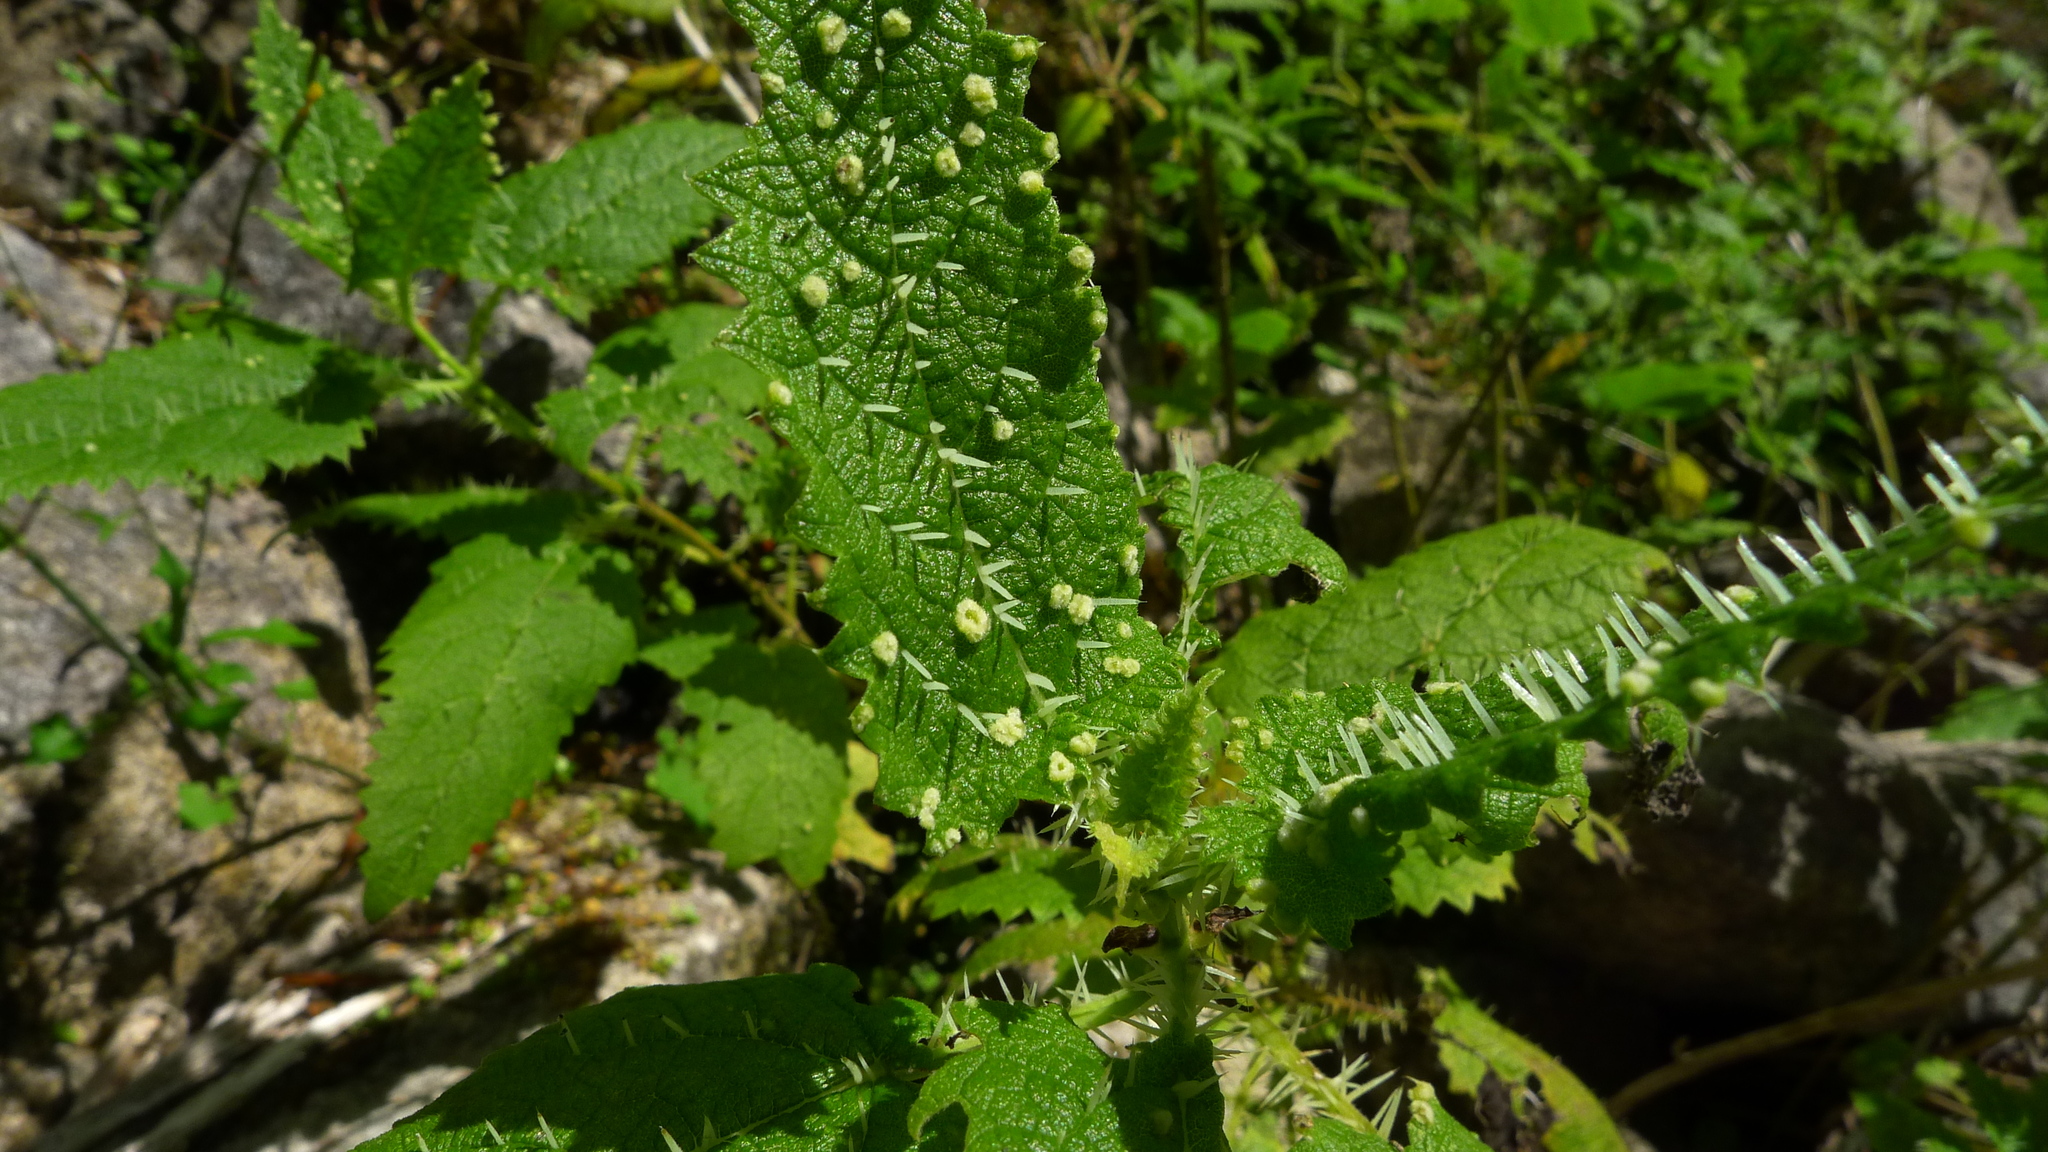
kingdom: Plantae
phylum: Tracheophyta
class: Magnoliopsida
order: Rosales
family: Urticaceae
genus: Urtica
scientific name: Urtica ferox
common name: Tree nettle
